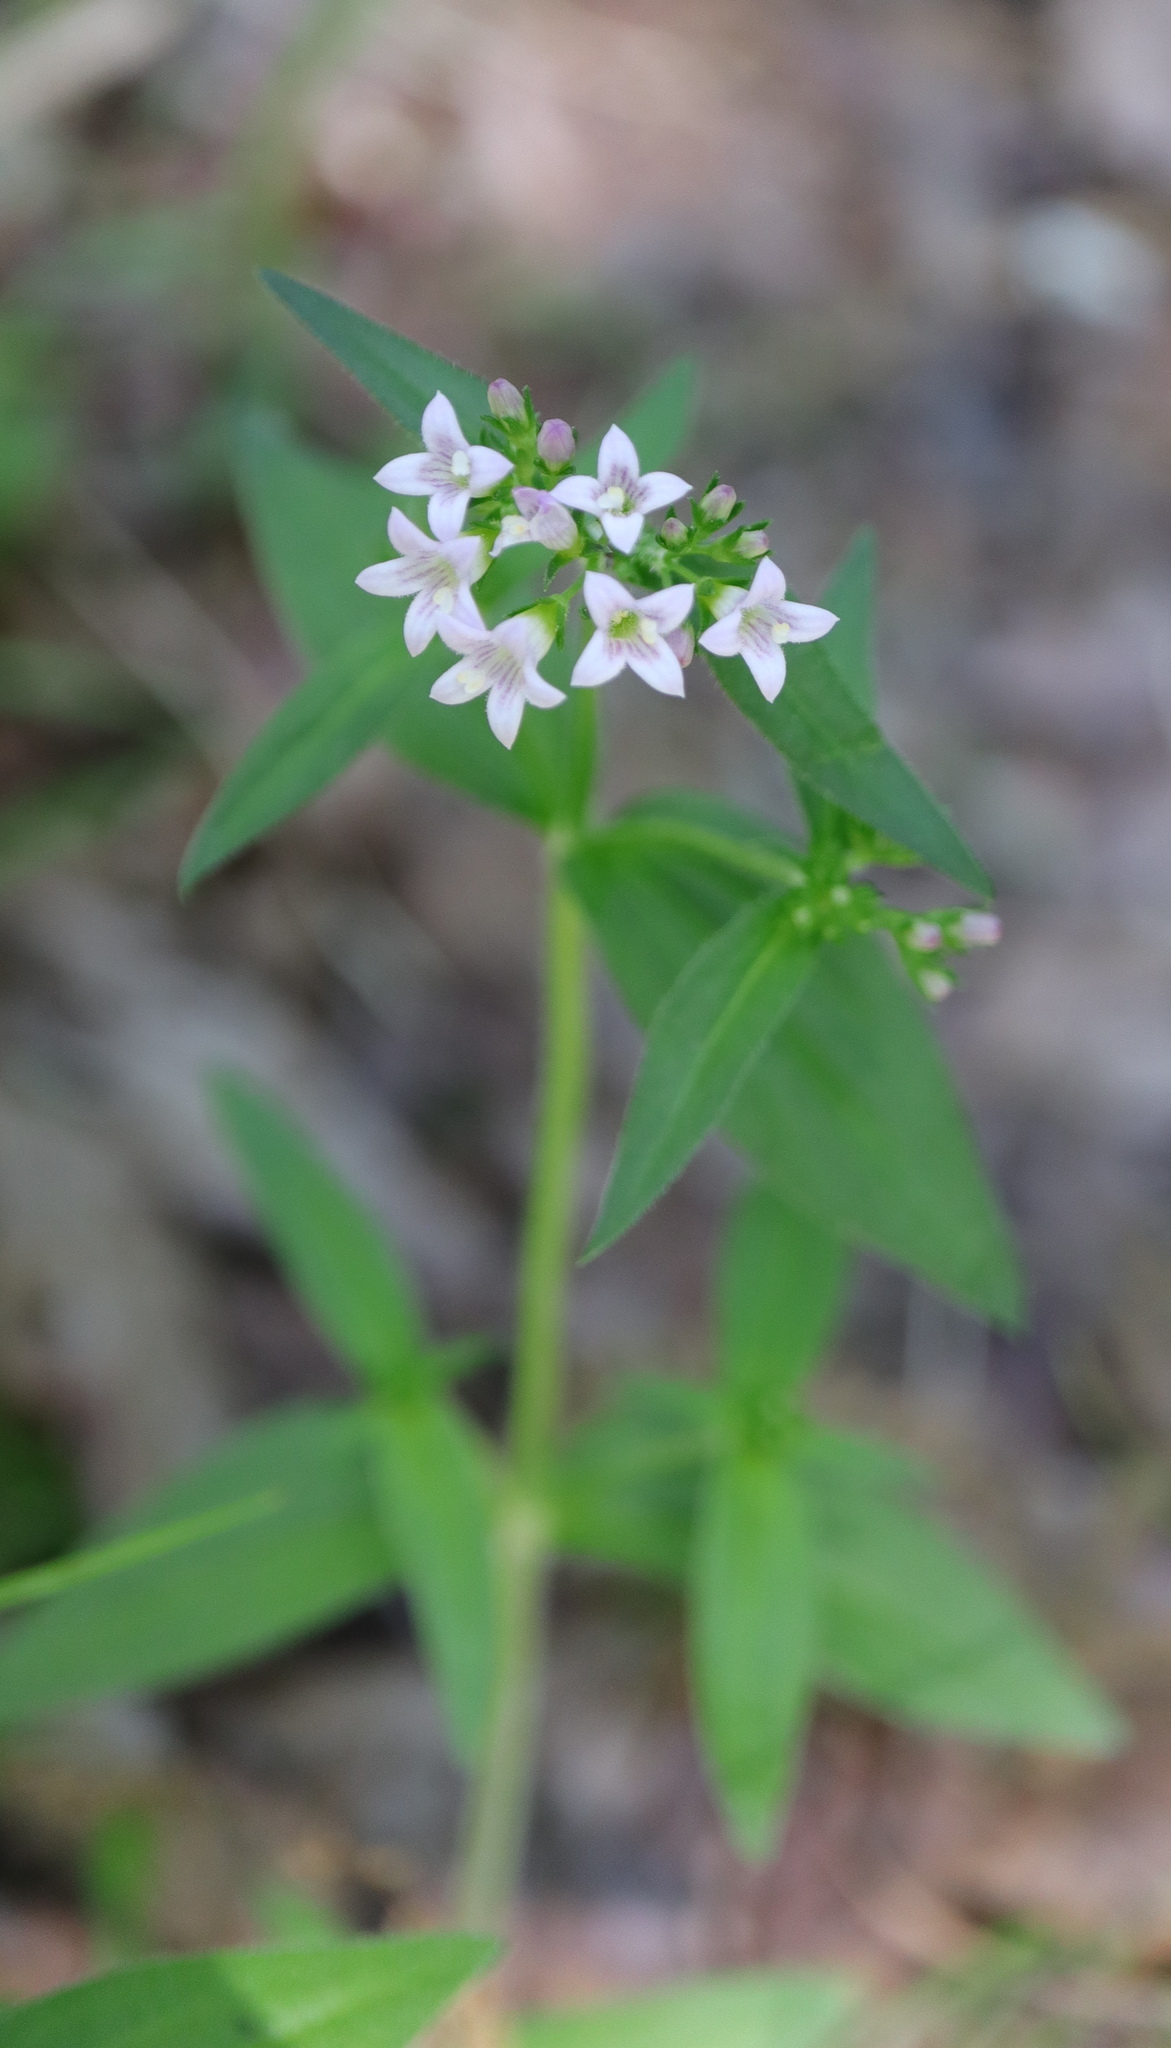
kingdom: Plantae
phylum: Tracheophyta
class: Magnoliopsida
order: Gentianales
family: Rubiaceae
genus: Houstonia
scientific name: Houstonia purpurea
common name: Summer bluet
